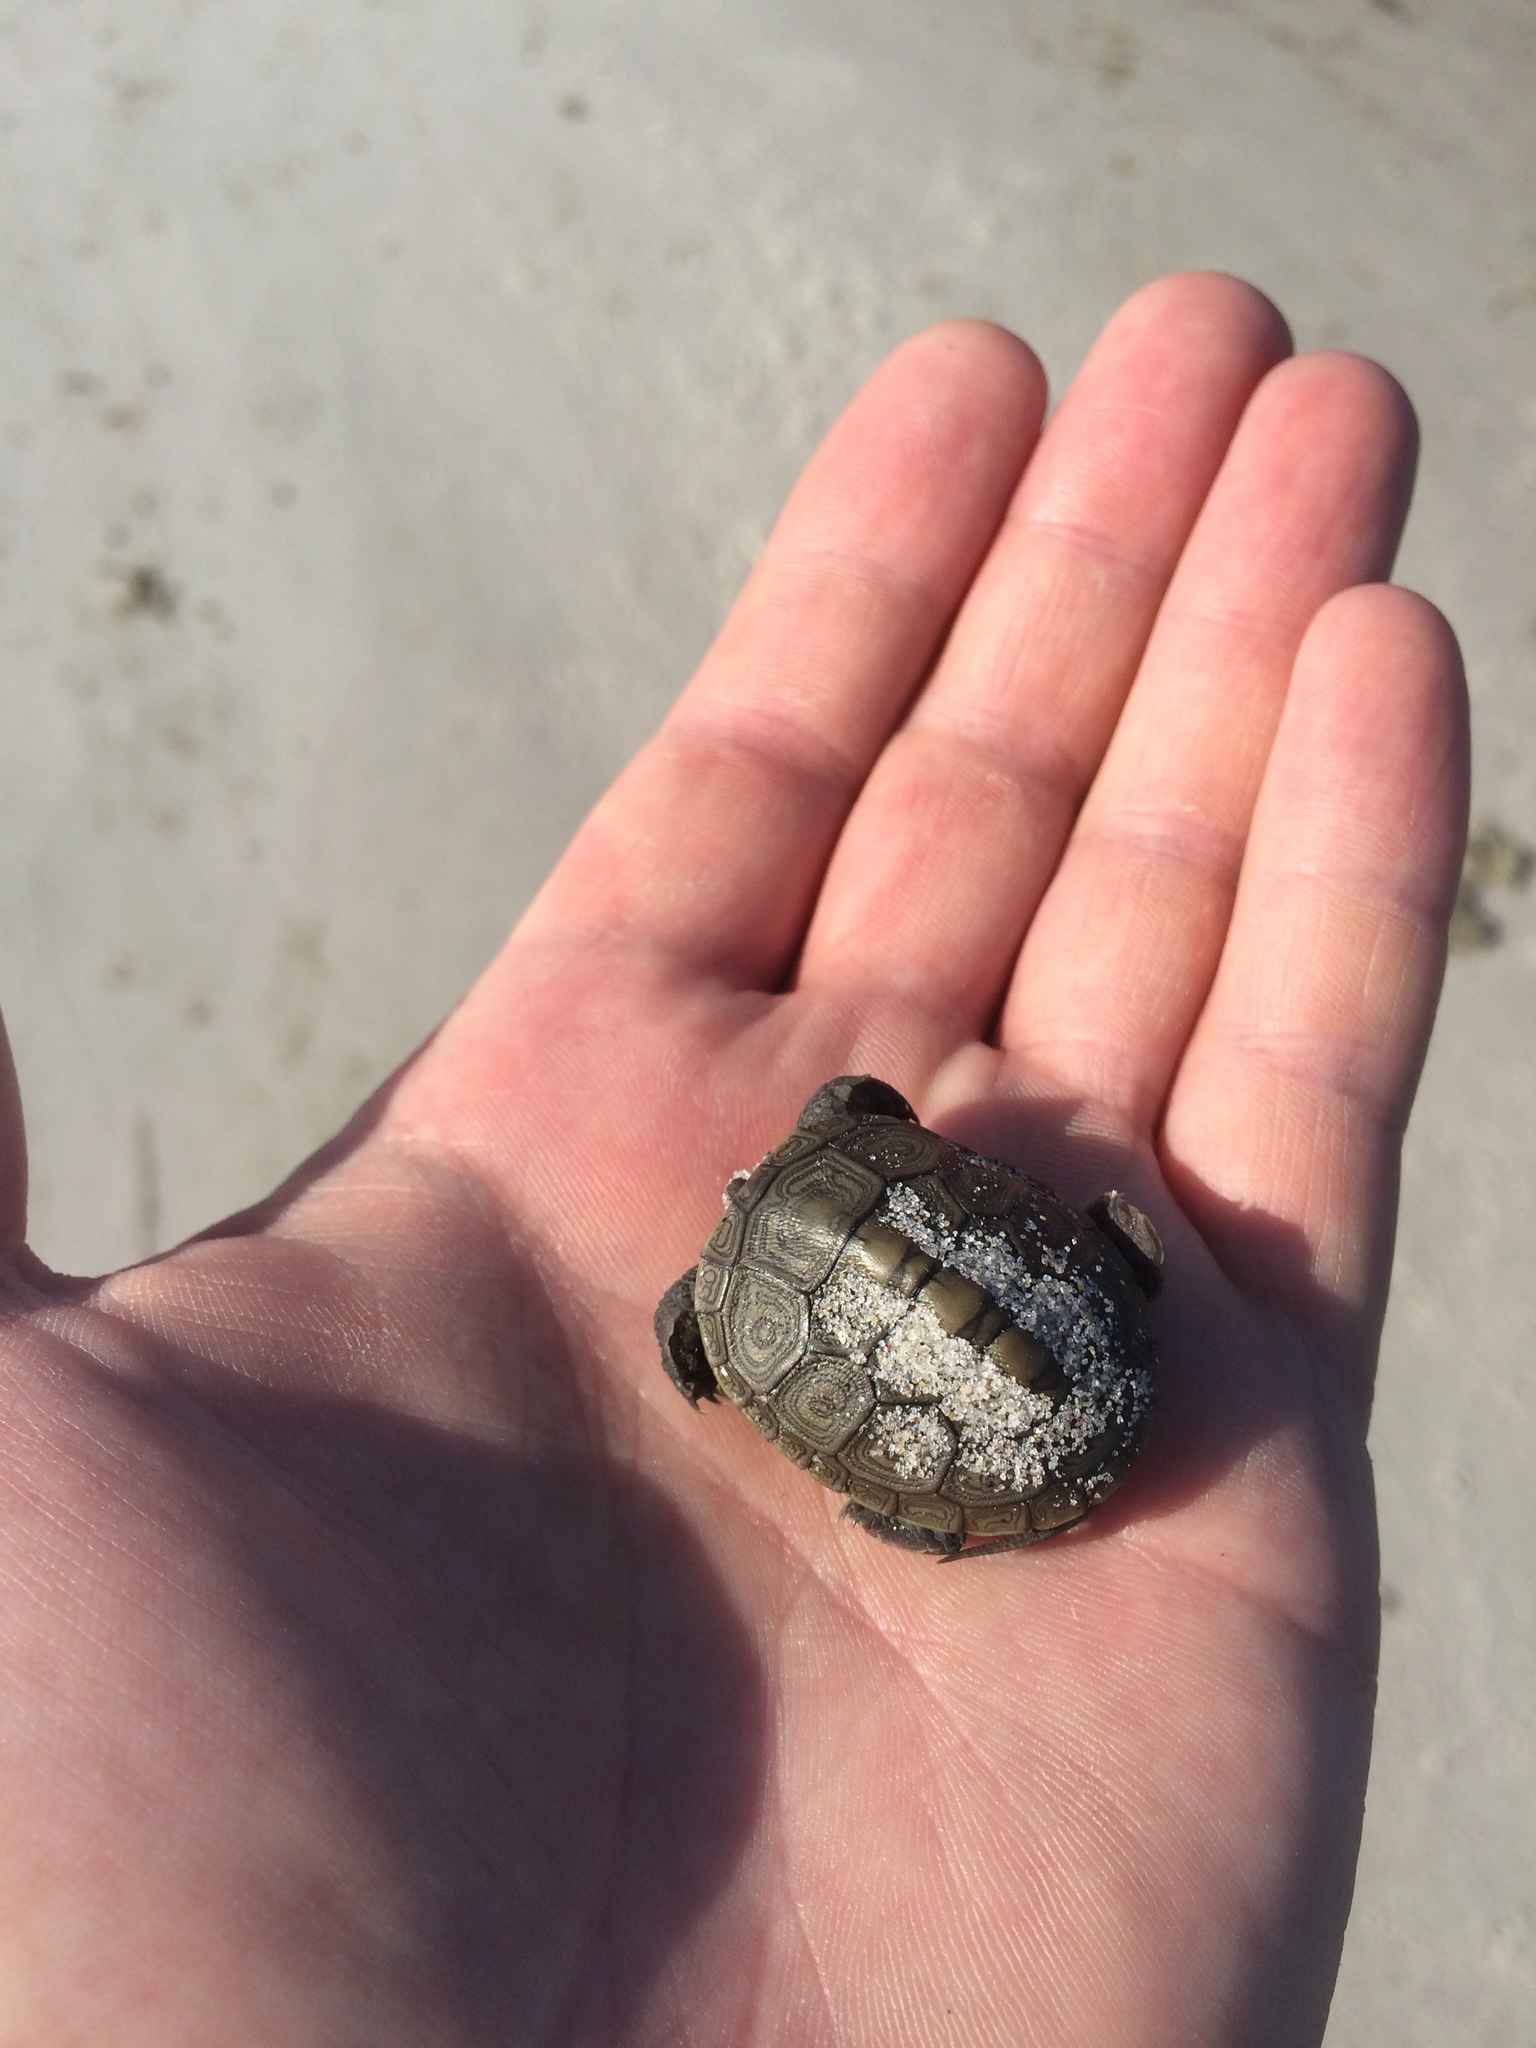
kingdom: Animalia
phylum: Chordata
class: Testudines
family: Emydidae
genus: Malaclemys
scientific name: Malaclemys terrapin
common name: Diamondback terrapin
